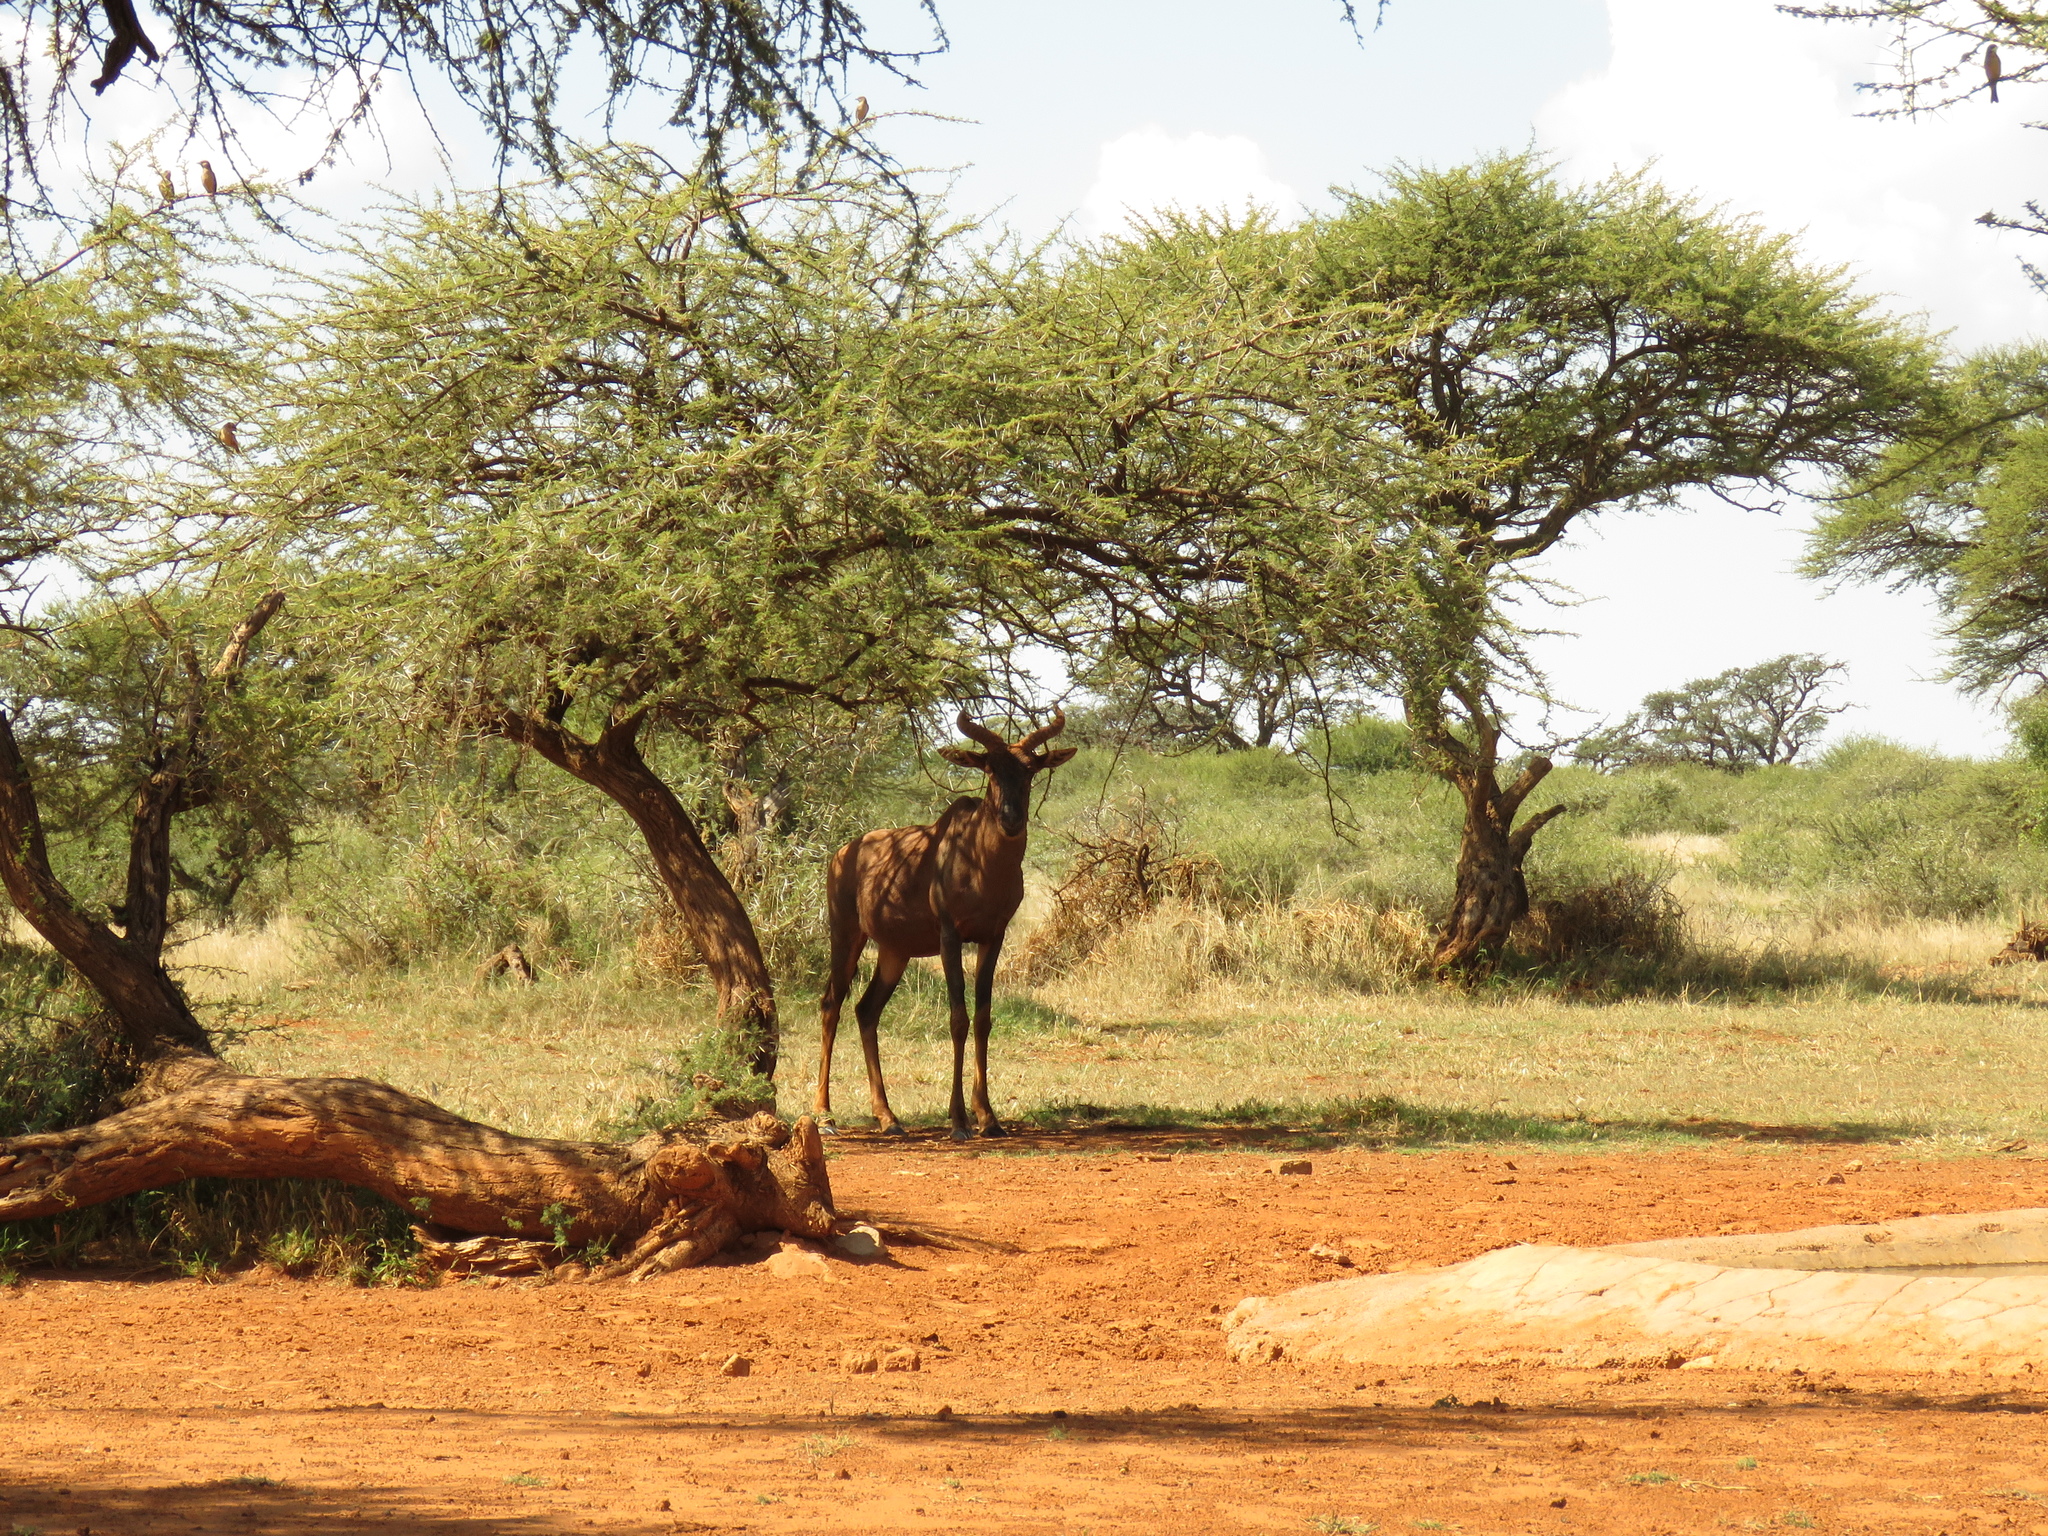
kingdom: Animalia
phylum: Chordata
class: Mammalia
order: Artiodactyla
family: Bovidae
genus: Damaliscus
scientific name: Damaliscus lunatus
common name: Common tsessebe
